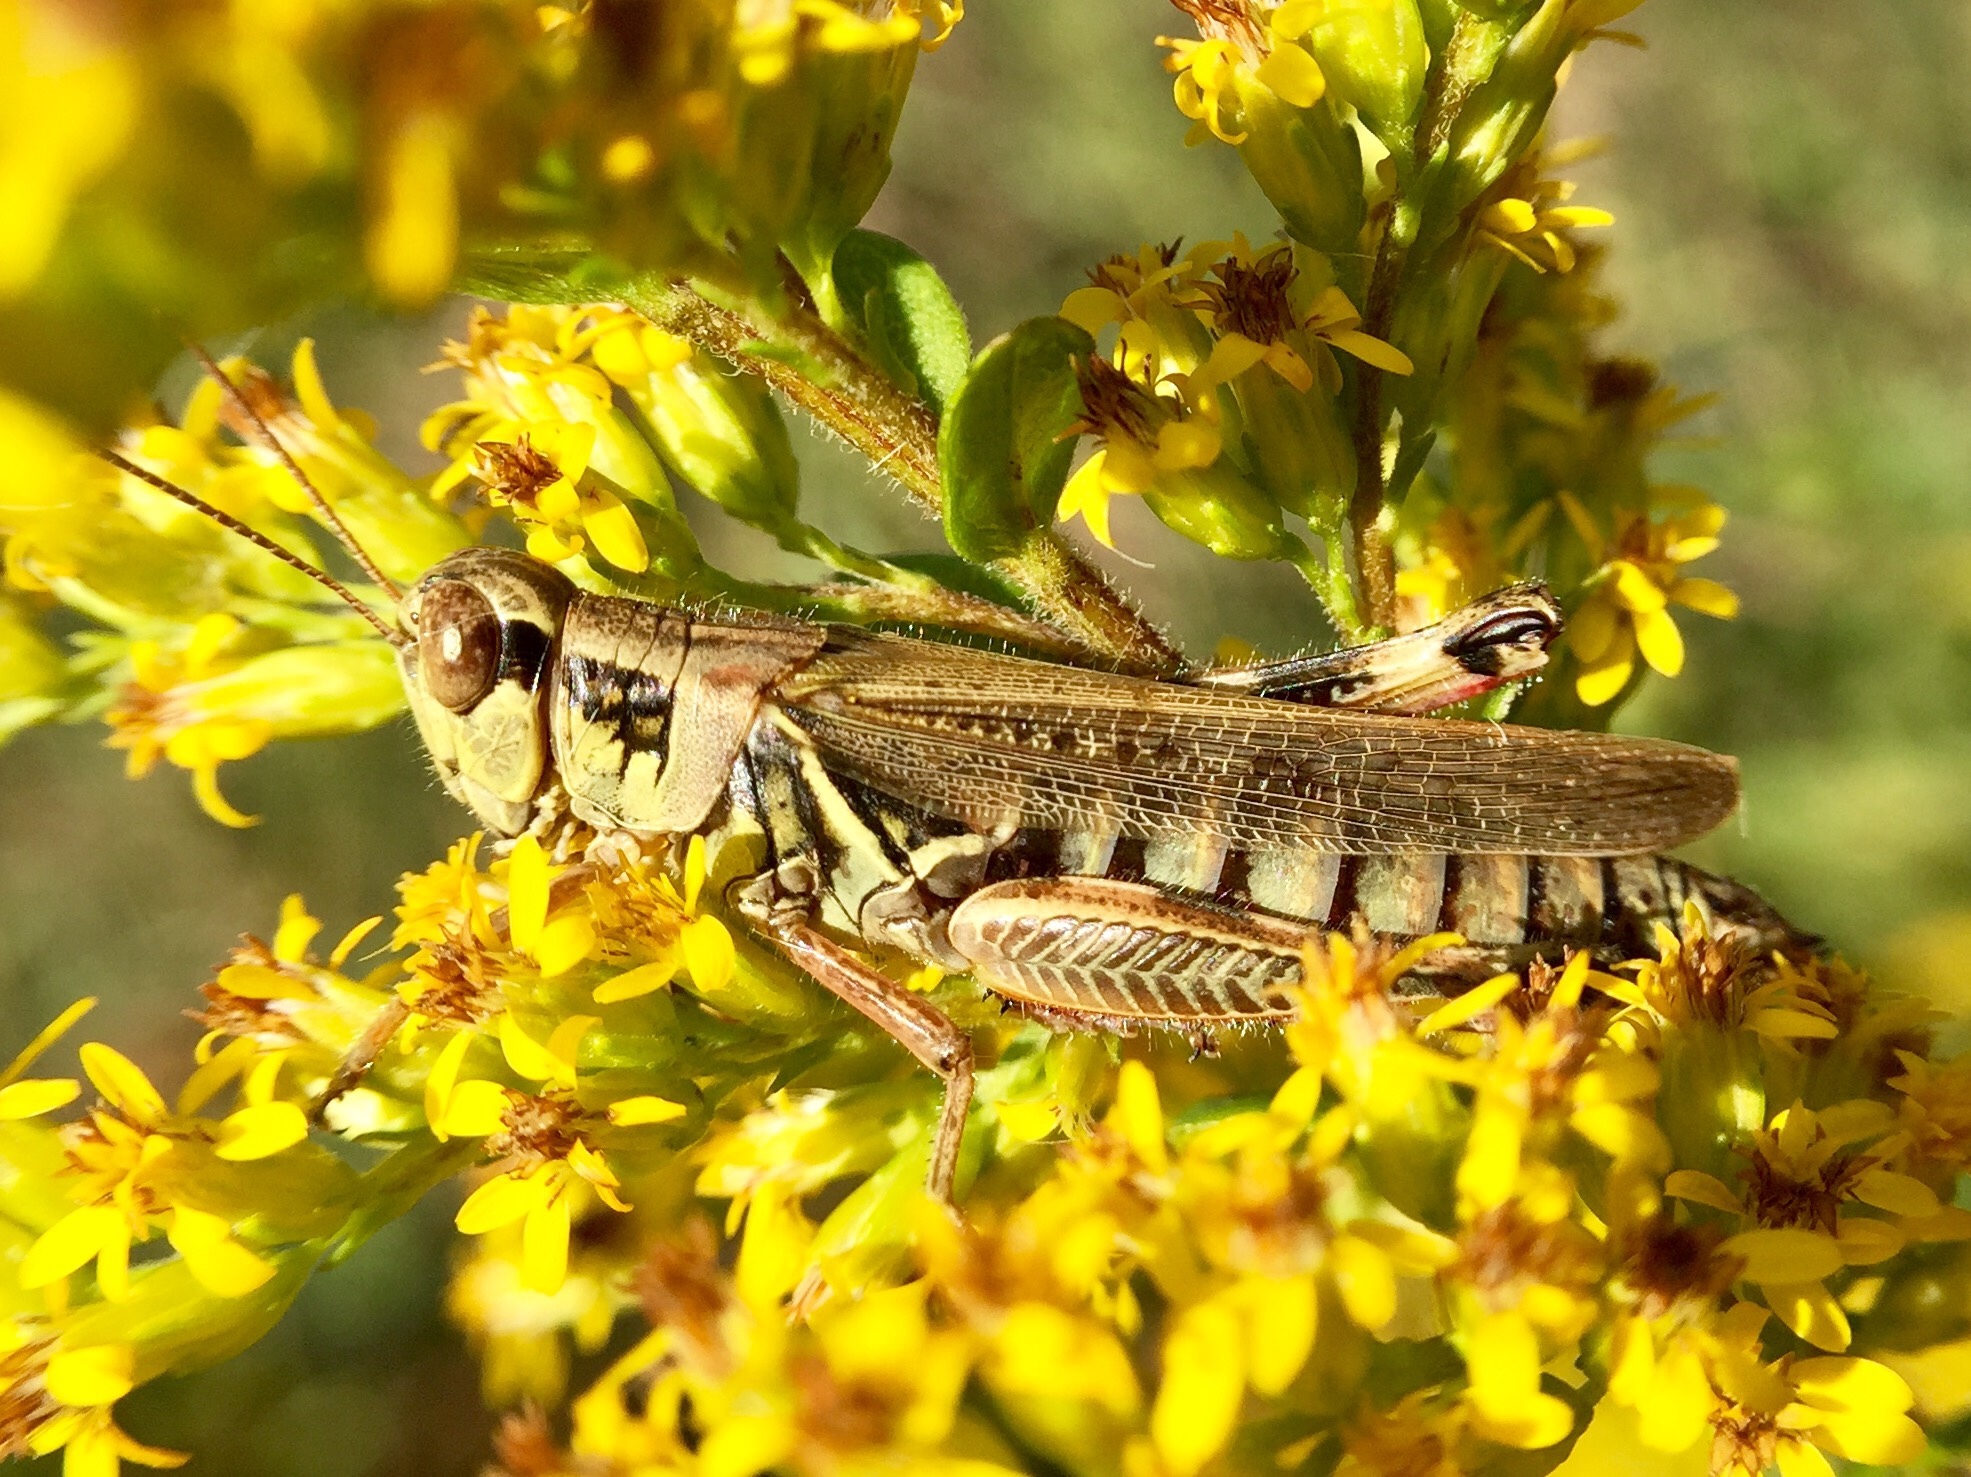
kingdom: Animalia
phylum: Arthropoda
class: Insecta
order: Orthoptera
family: Acrididae
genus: Melanoplus
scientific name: Melanoplus femurrubrum
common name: Red-legged grasshopper
